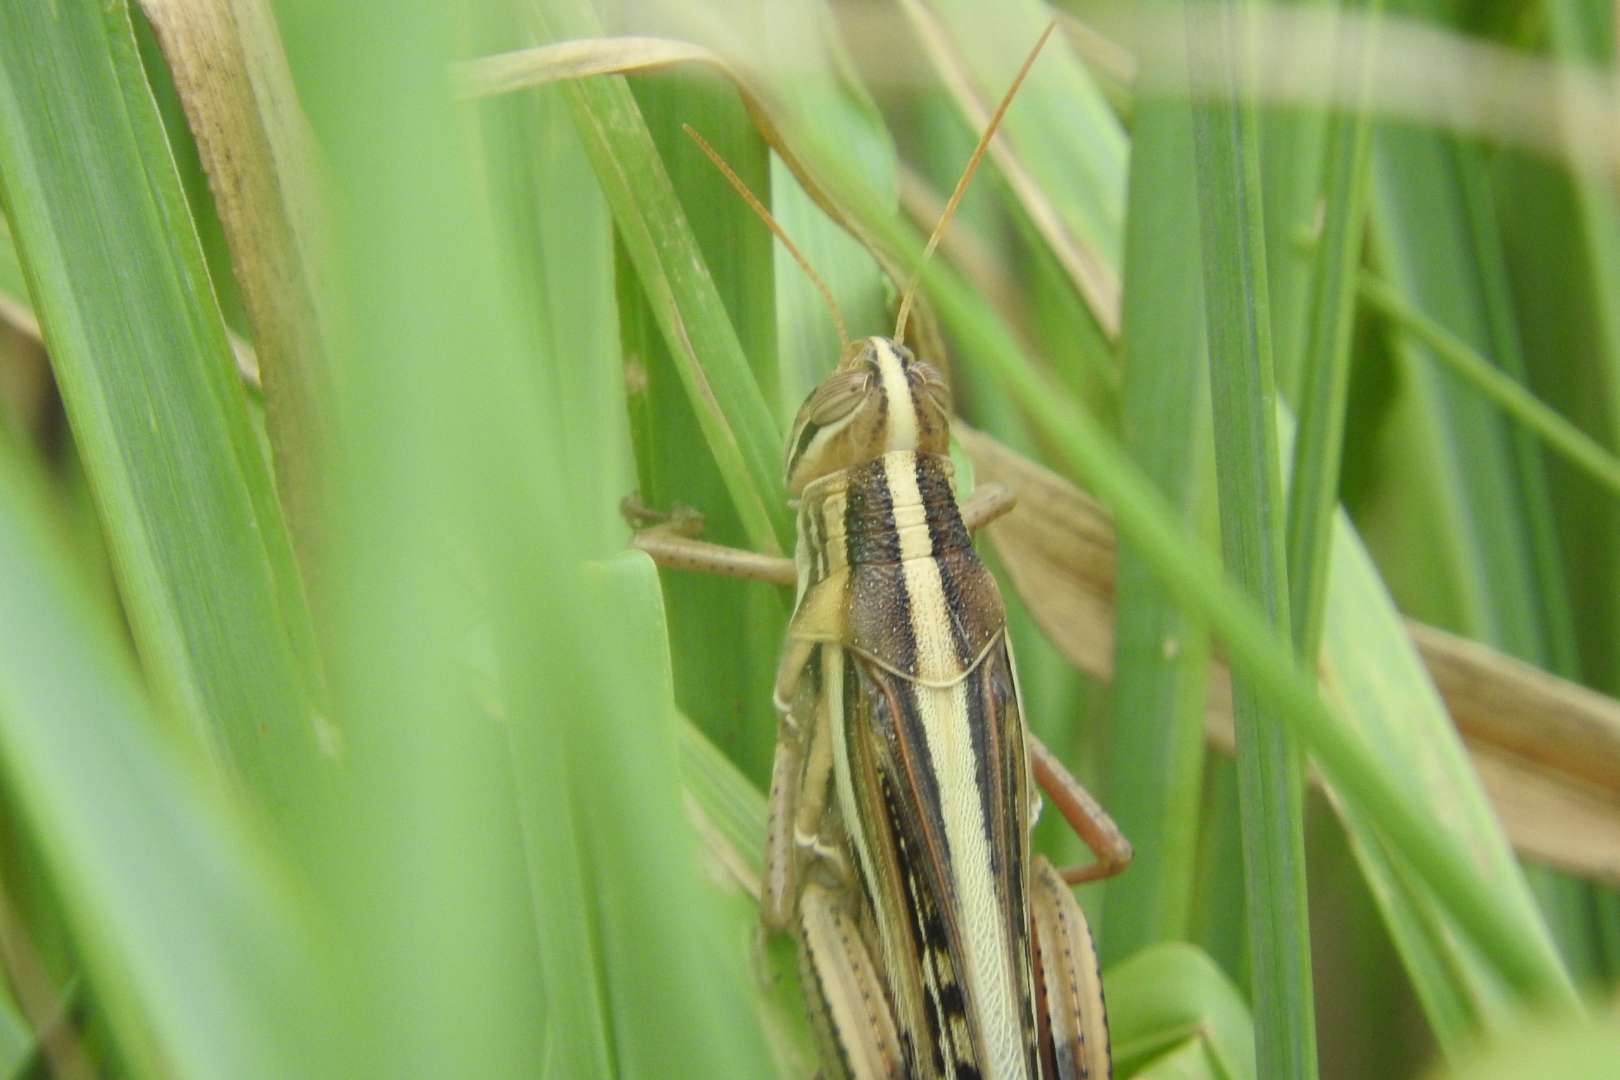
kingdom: Animalia
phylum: Arthropoda
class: Insecta
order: Orthoptera
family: Acrididae
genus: Schistocerca
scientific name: Schistocerca piceifrons
